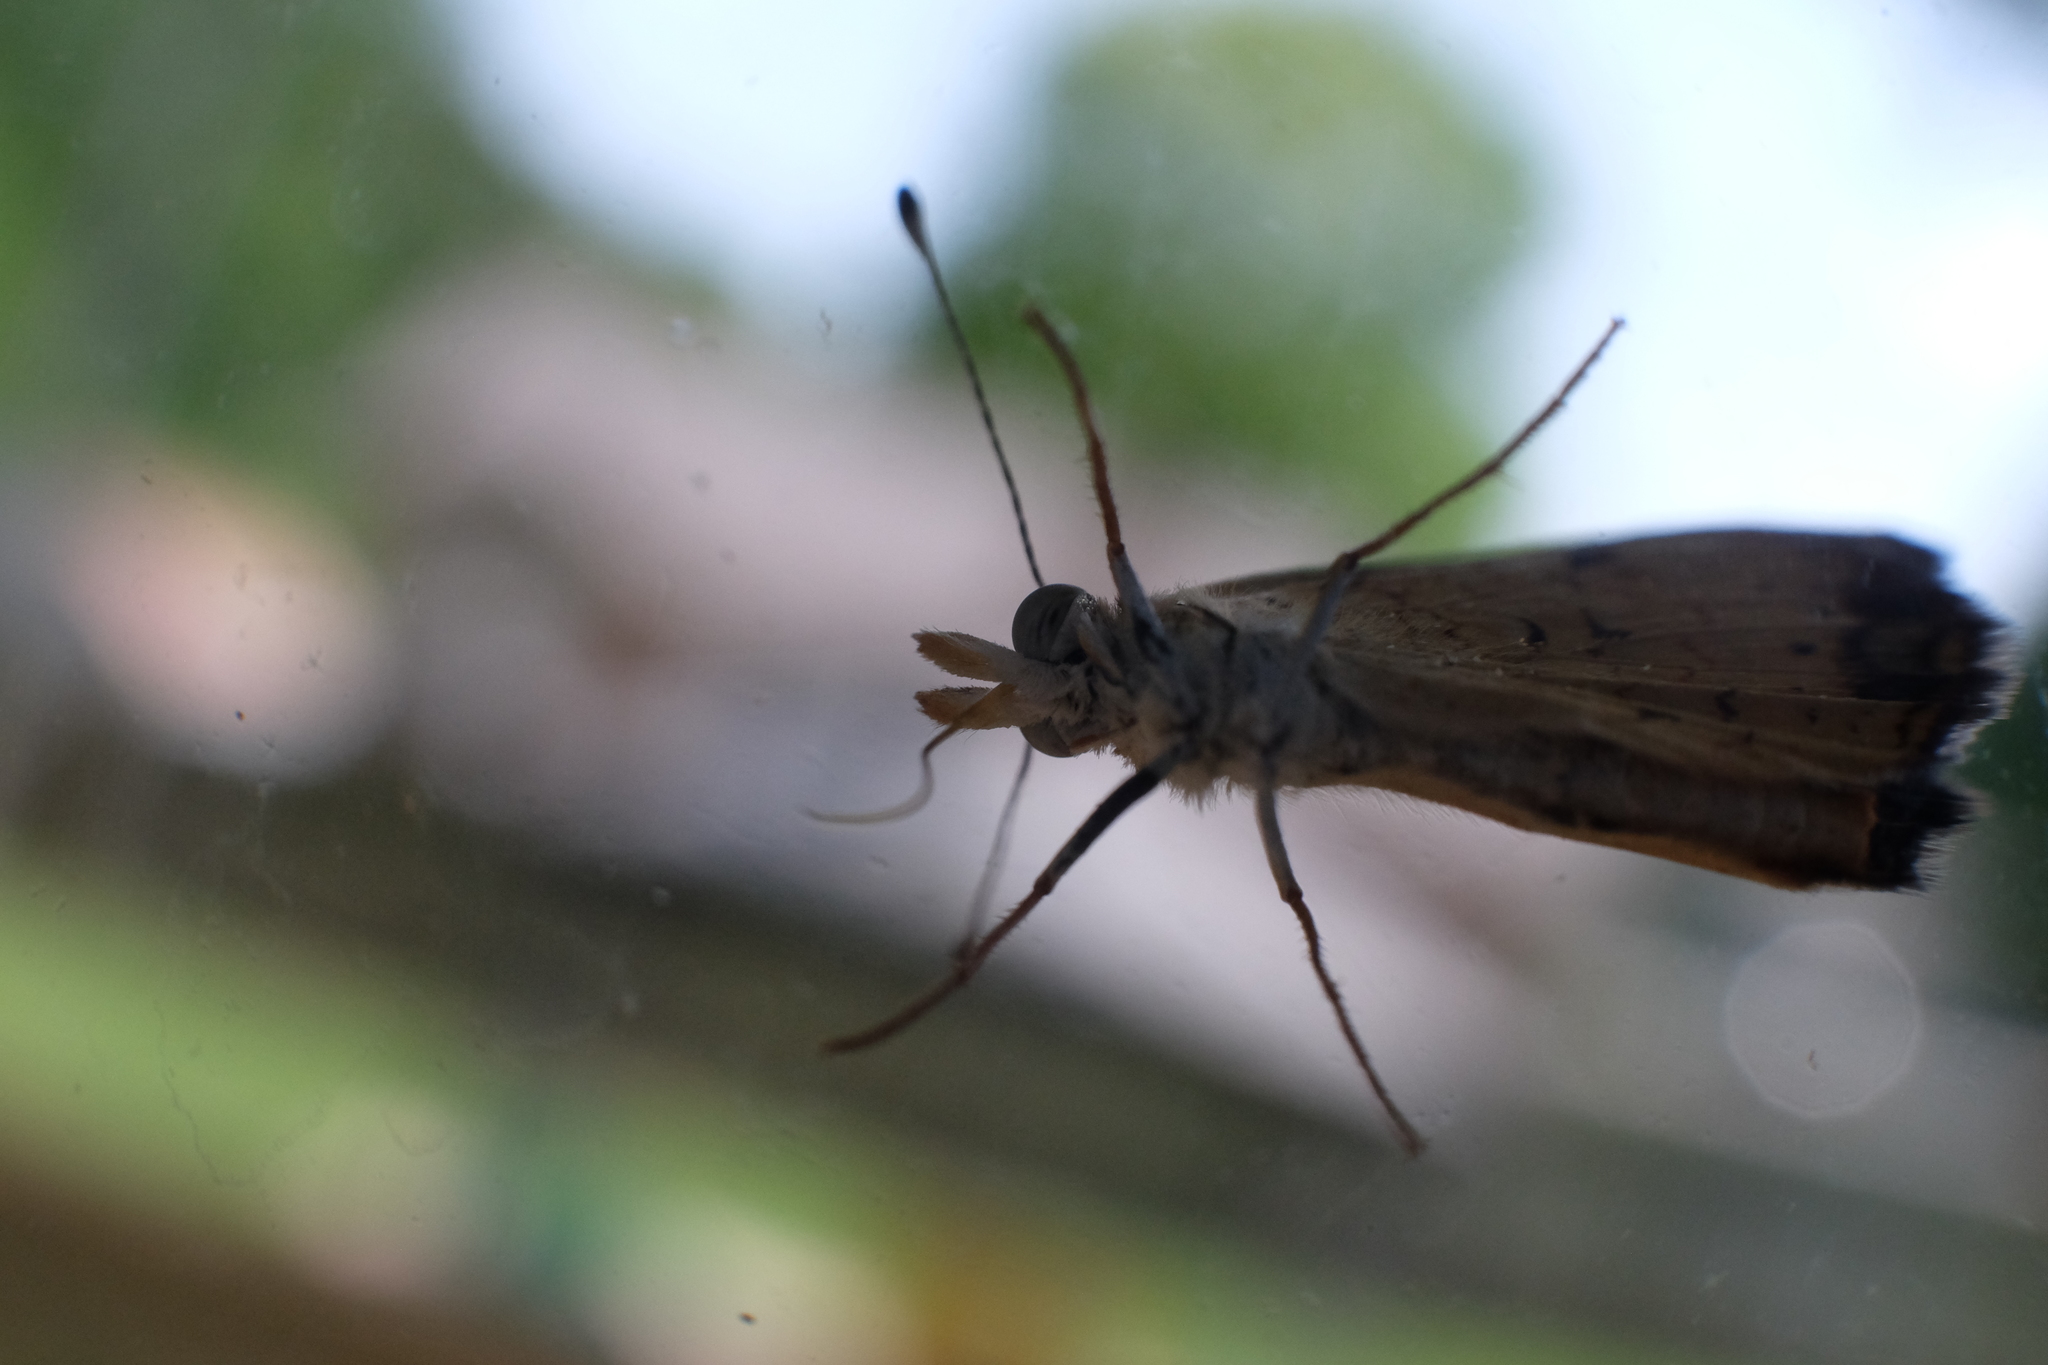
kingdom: Animalia
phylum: Arthropoda
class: Insecta
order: Lepidoptera
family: Nymphalidae
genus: Phyciodes
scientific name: Phyciodes tharos
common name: Pearl crescent
